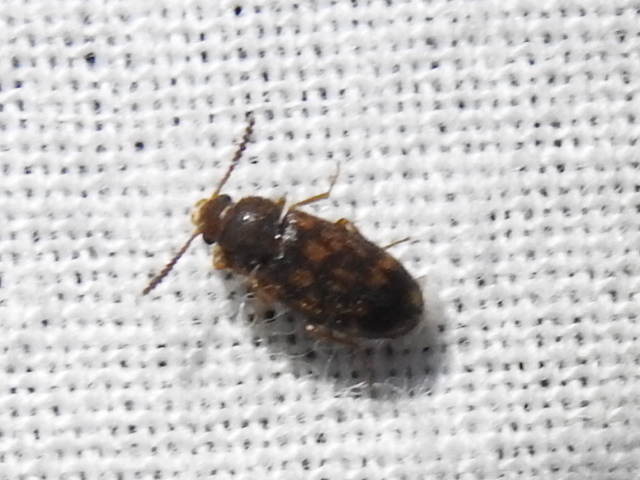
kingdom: Animalia
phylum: Arthropoda
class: Insecta
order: Coleoptera
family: Mycetophagidae
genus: Mycetophagus
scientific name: Mycetophagus pluripunctatus
